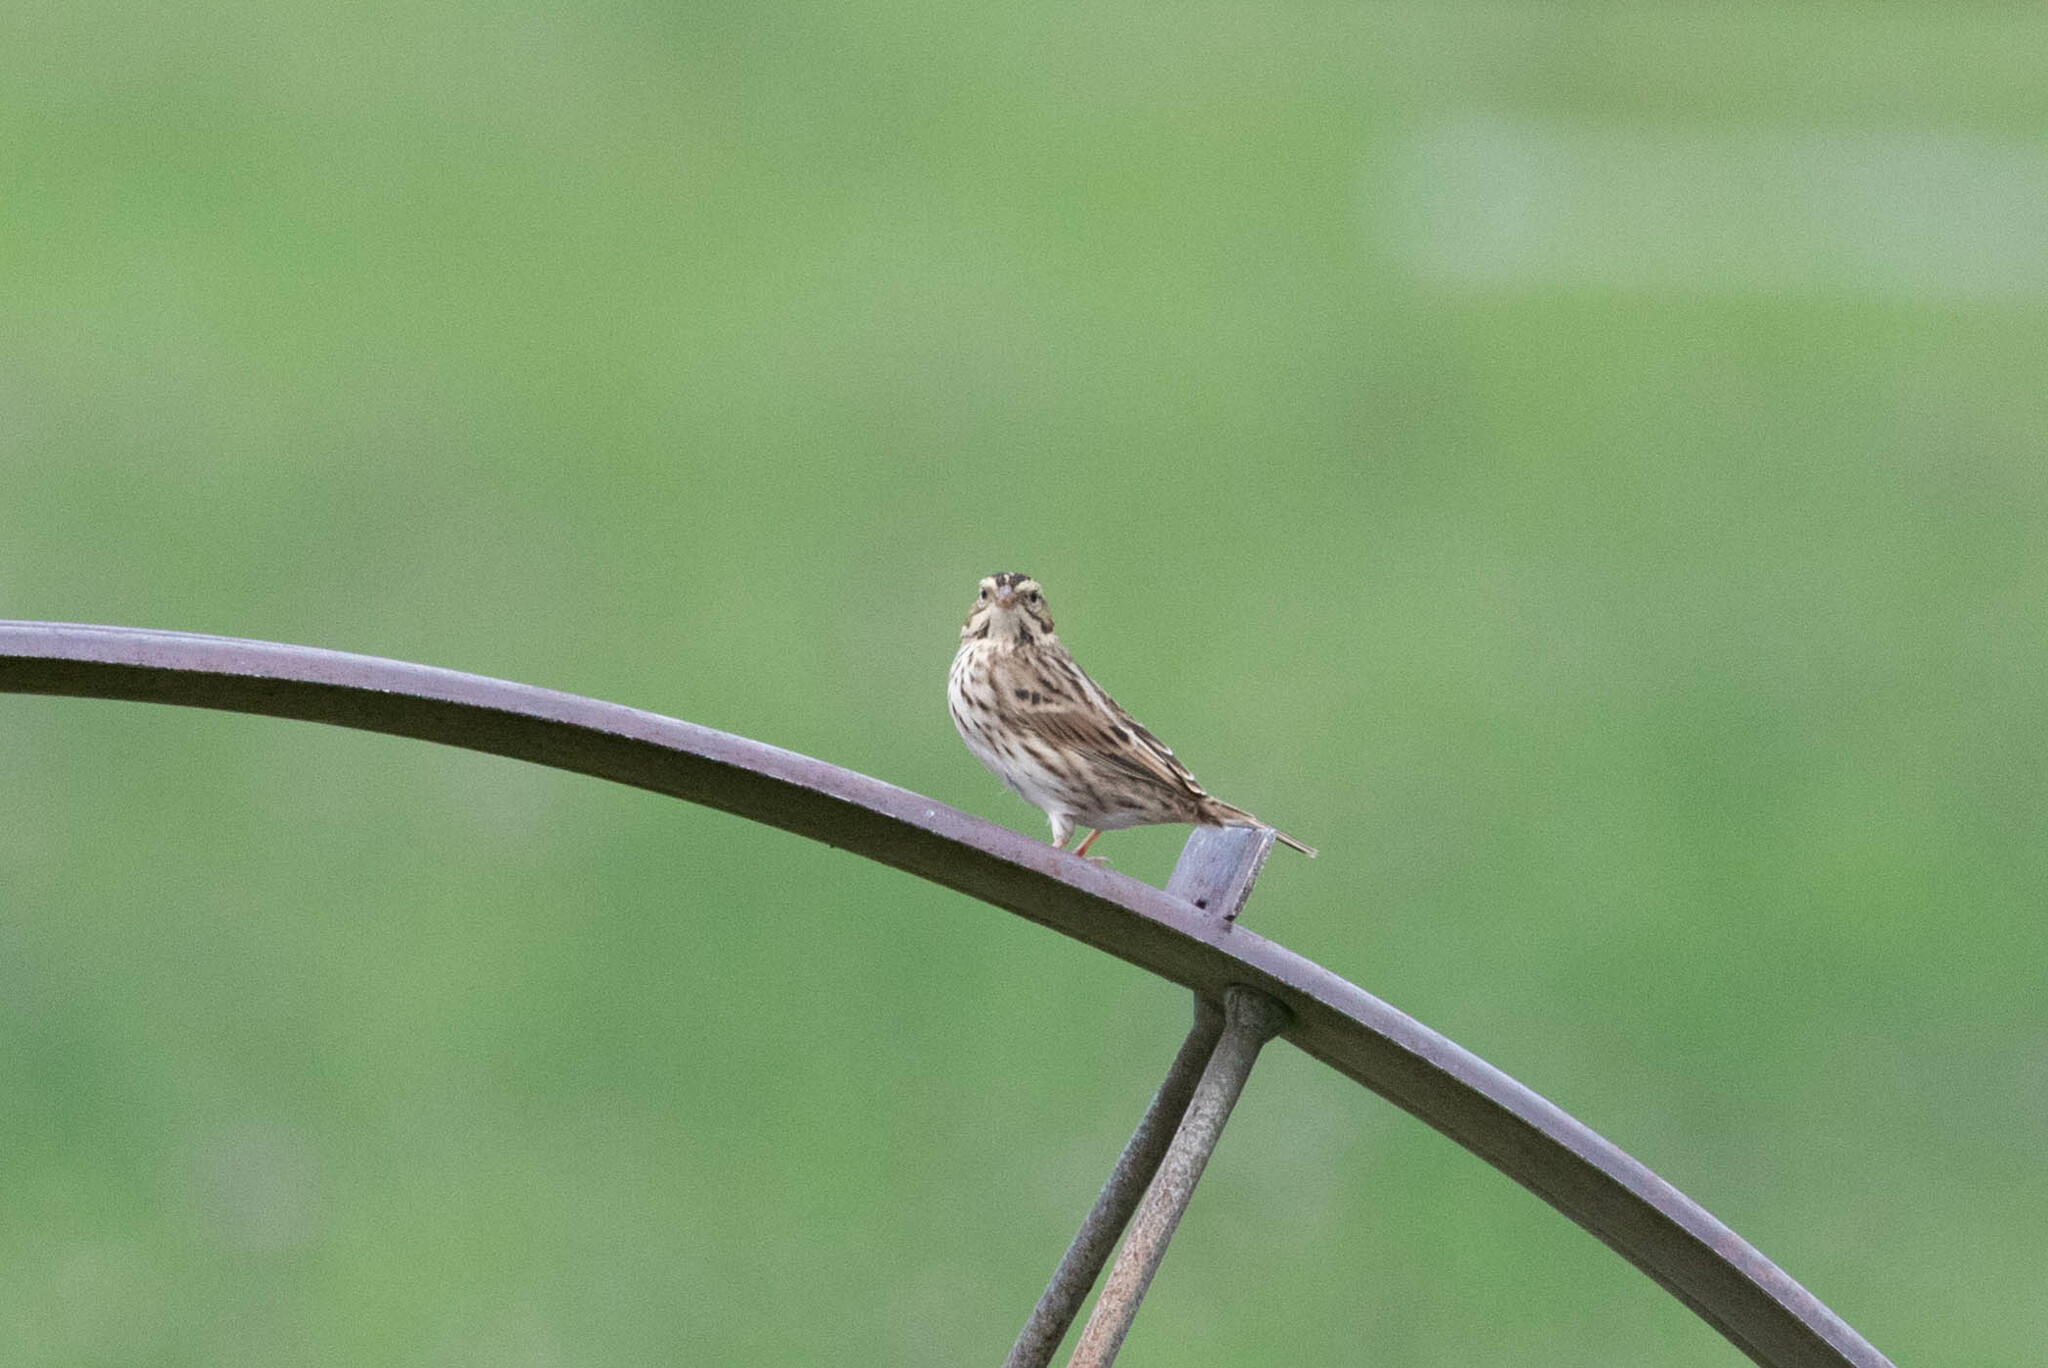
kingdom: Animalia
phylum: Chordata
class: Aves
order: Passeriformes
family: Passerellidae
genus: Passerculus
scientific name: Passerculus sandwichensis
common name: Savannah sparrow
